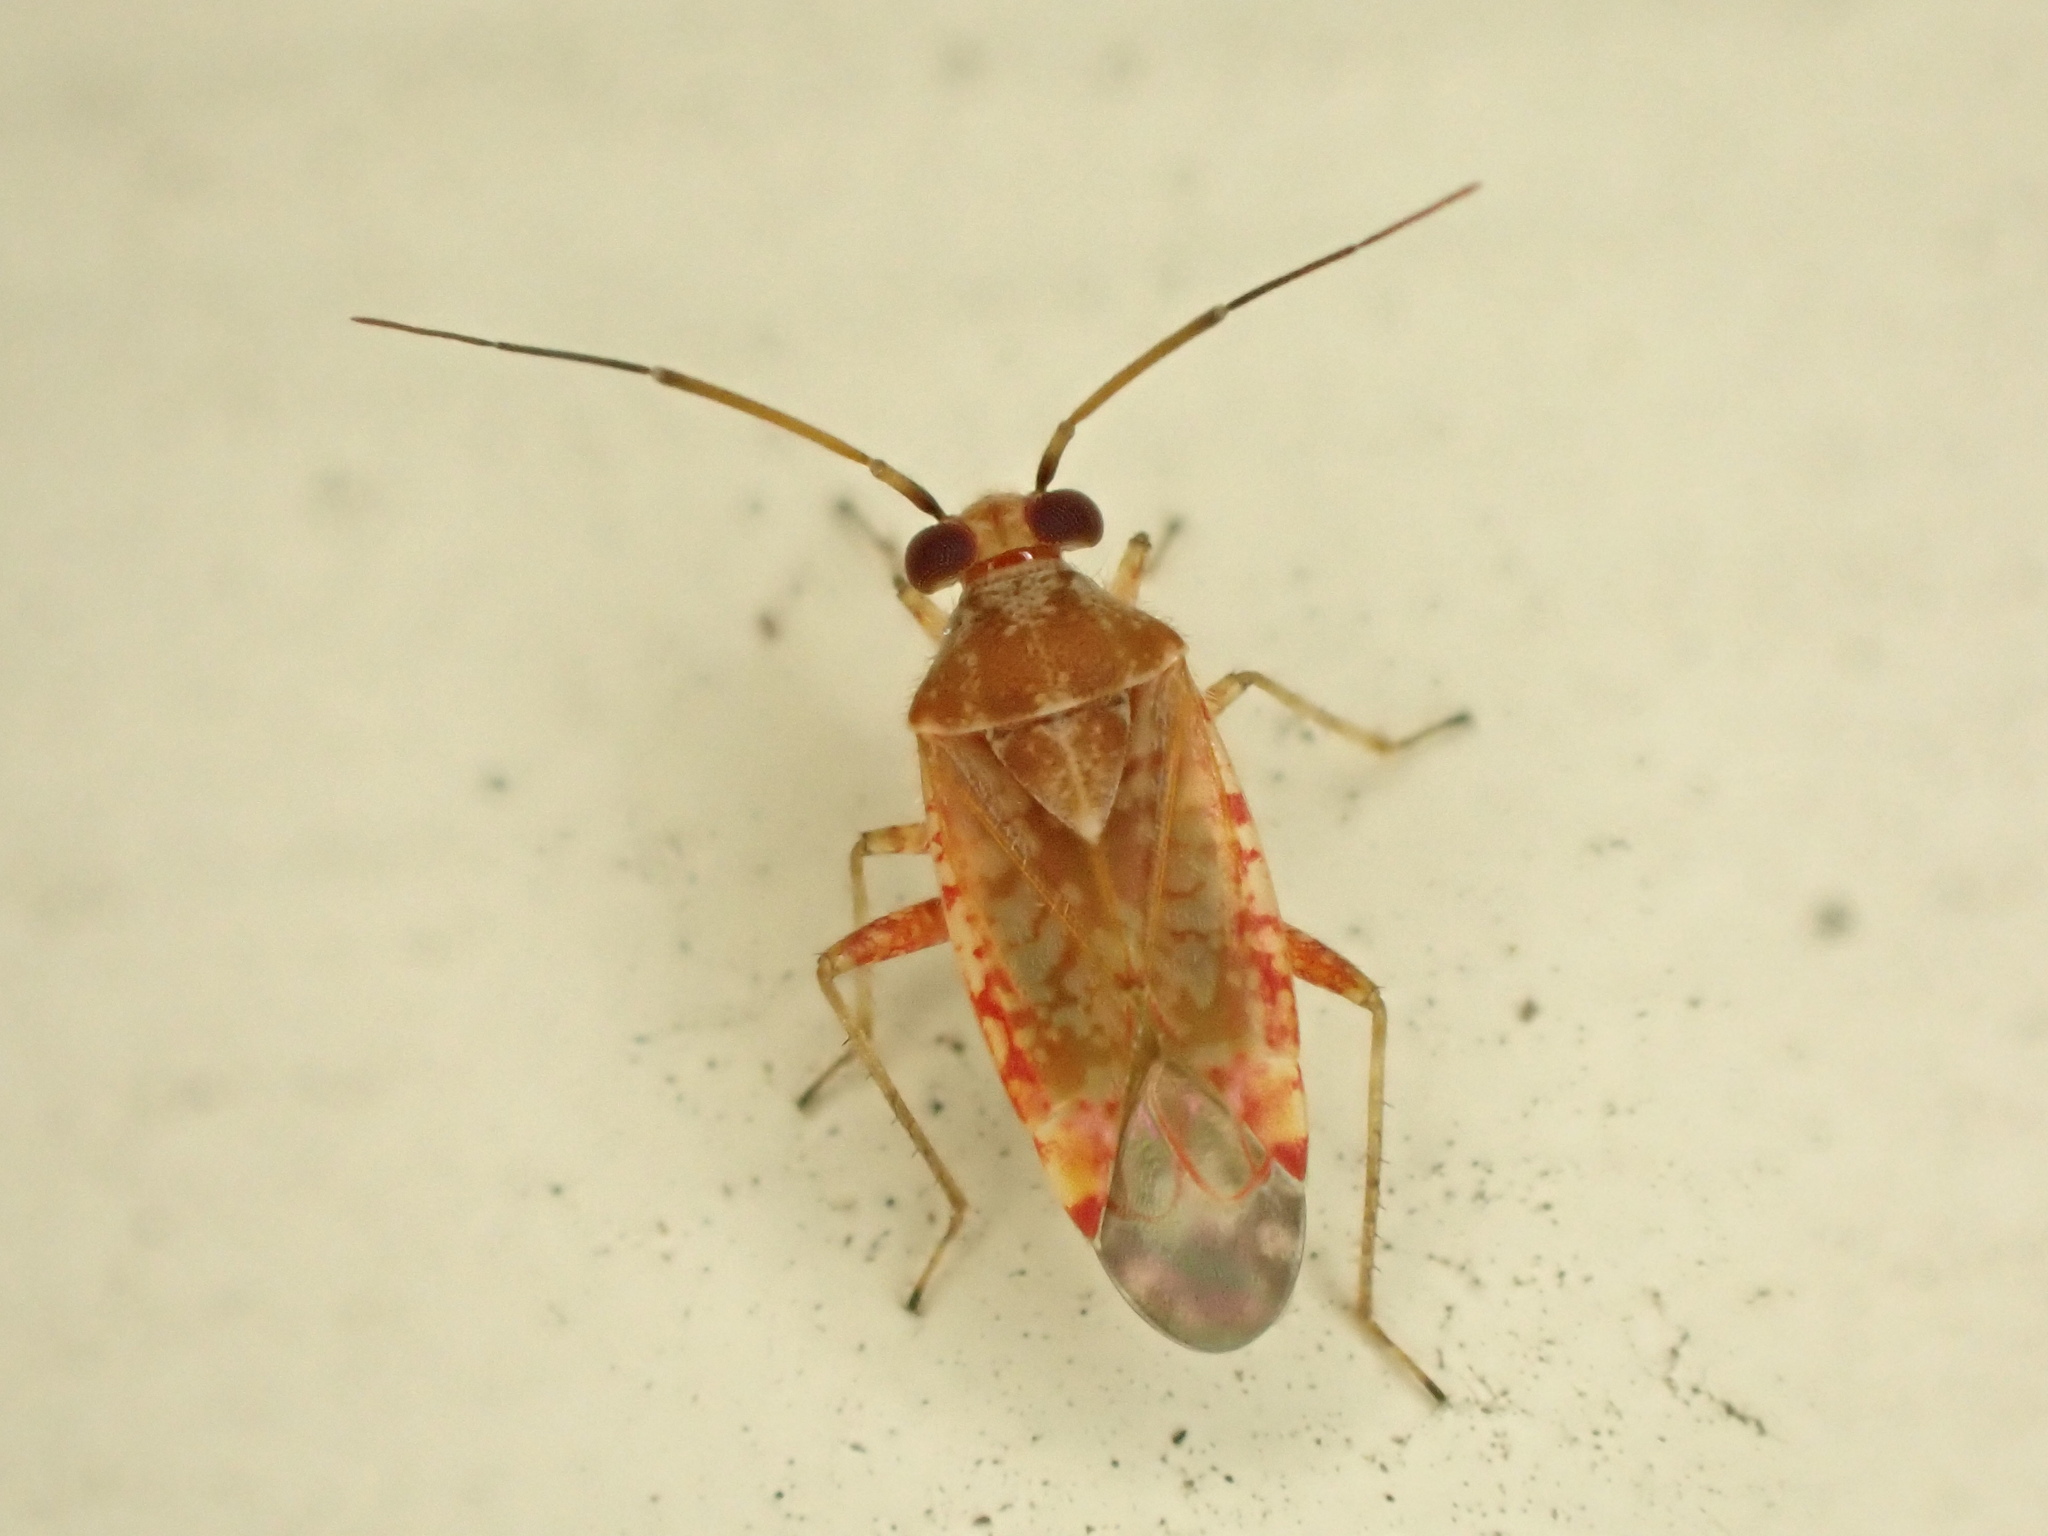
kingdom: Animalia
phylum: Arthropoda
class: Insecta
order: Hemiptera
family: Miridae
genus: Tinginotum
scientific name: Tinginotum minutum
